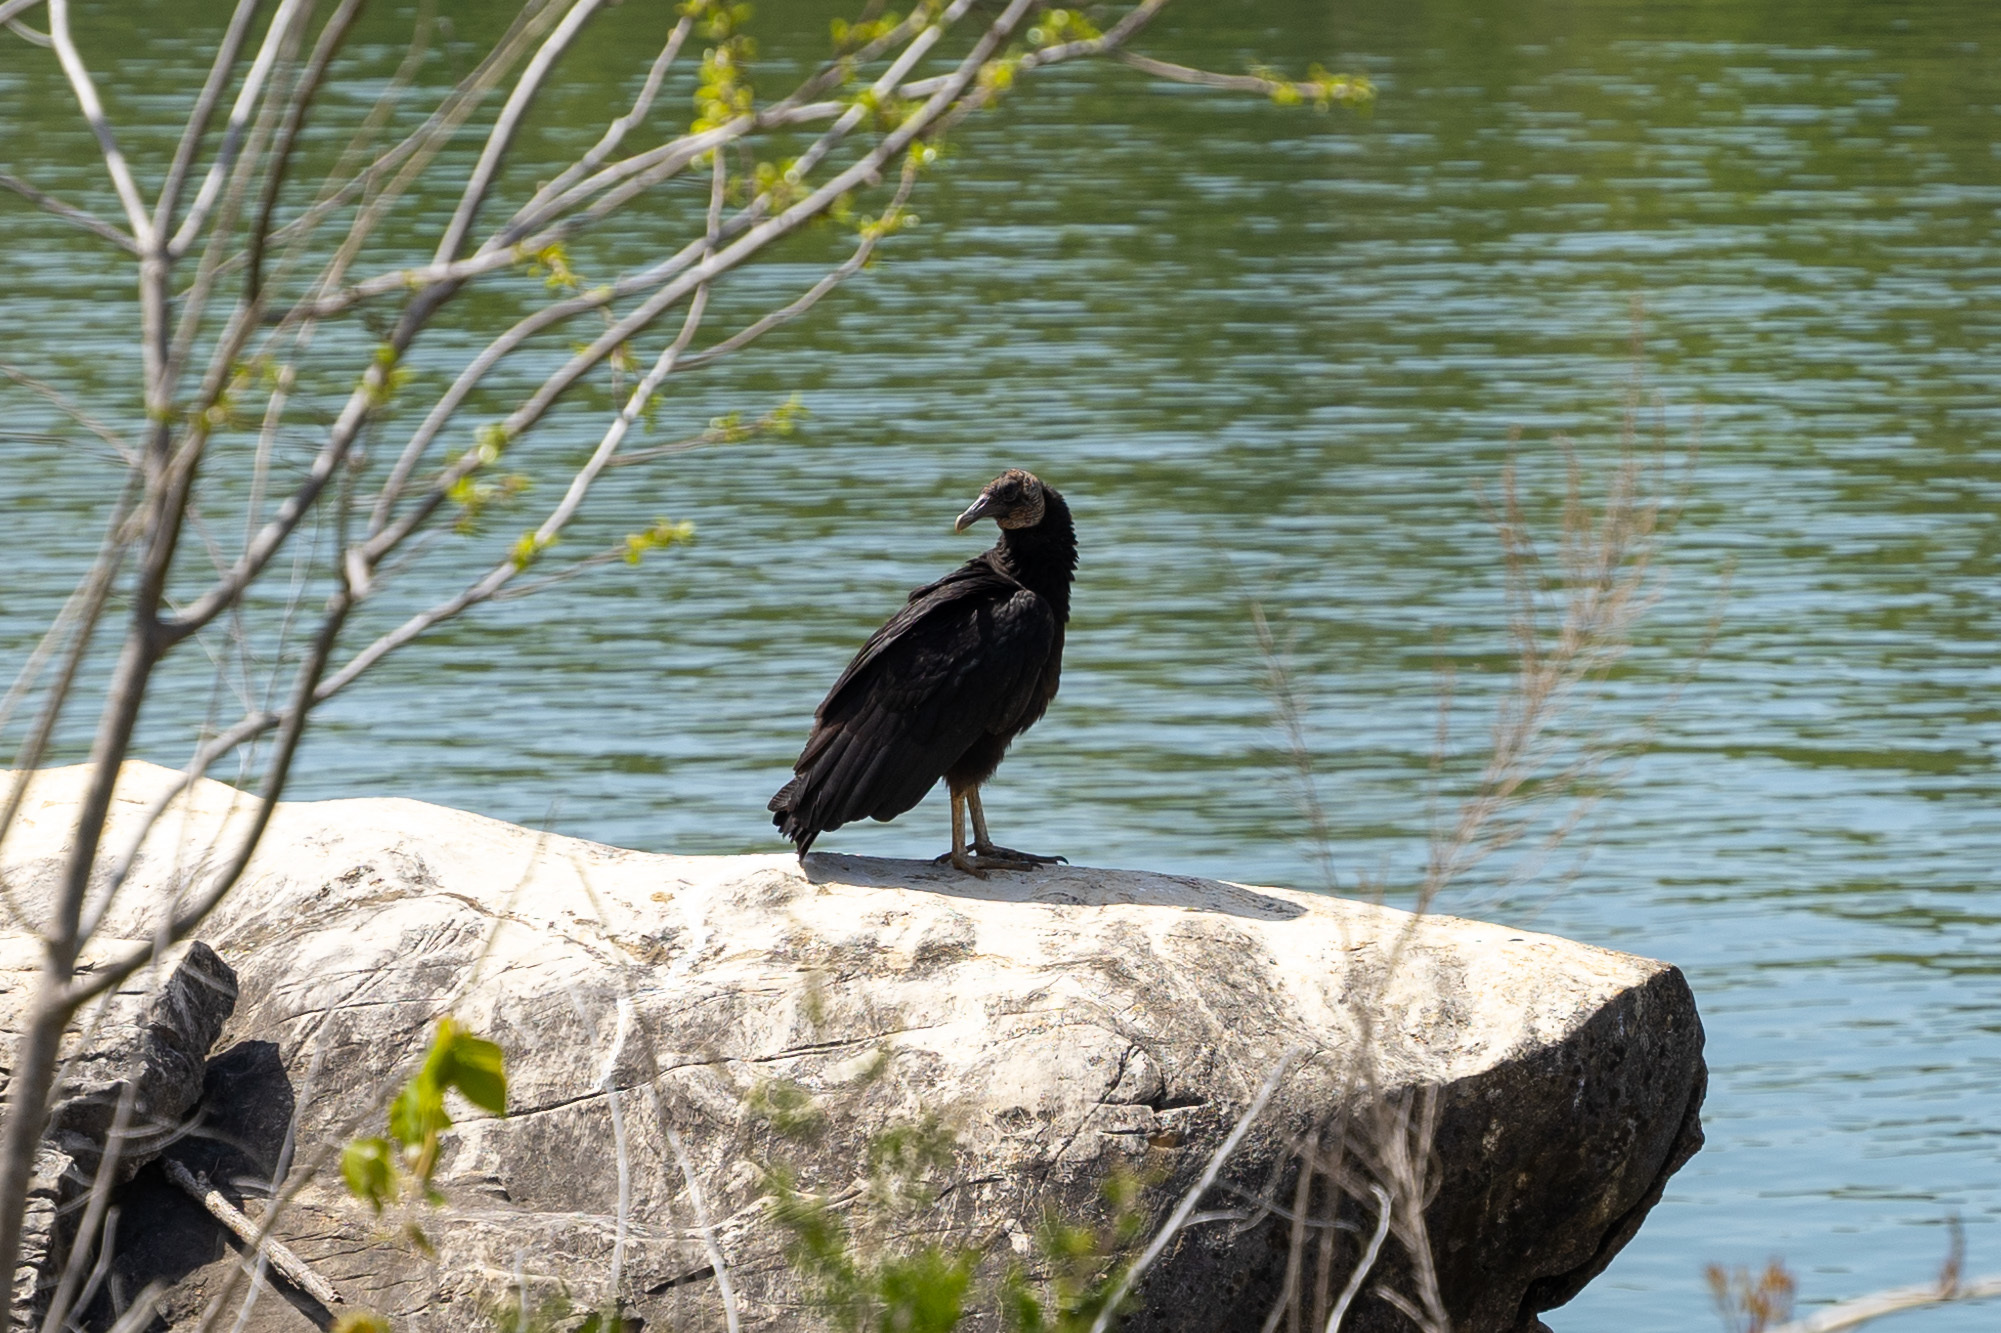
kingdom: Animalia
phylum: Chordata
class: Aves
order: Accipitriformes
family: Cathartidae
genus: Coragyps
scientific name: Coragyps atratus
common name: Black vulture
